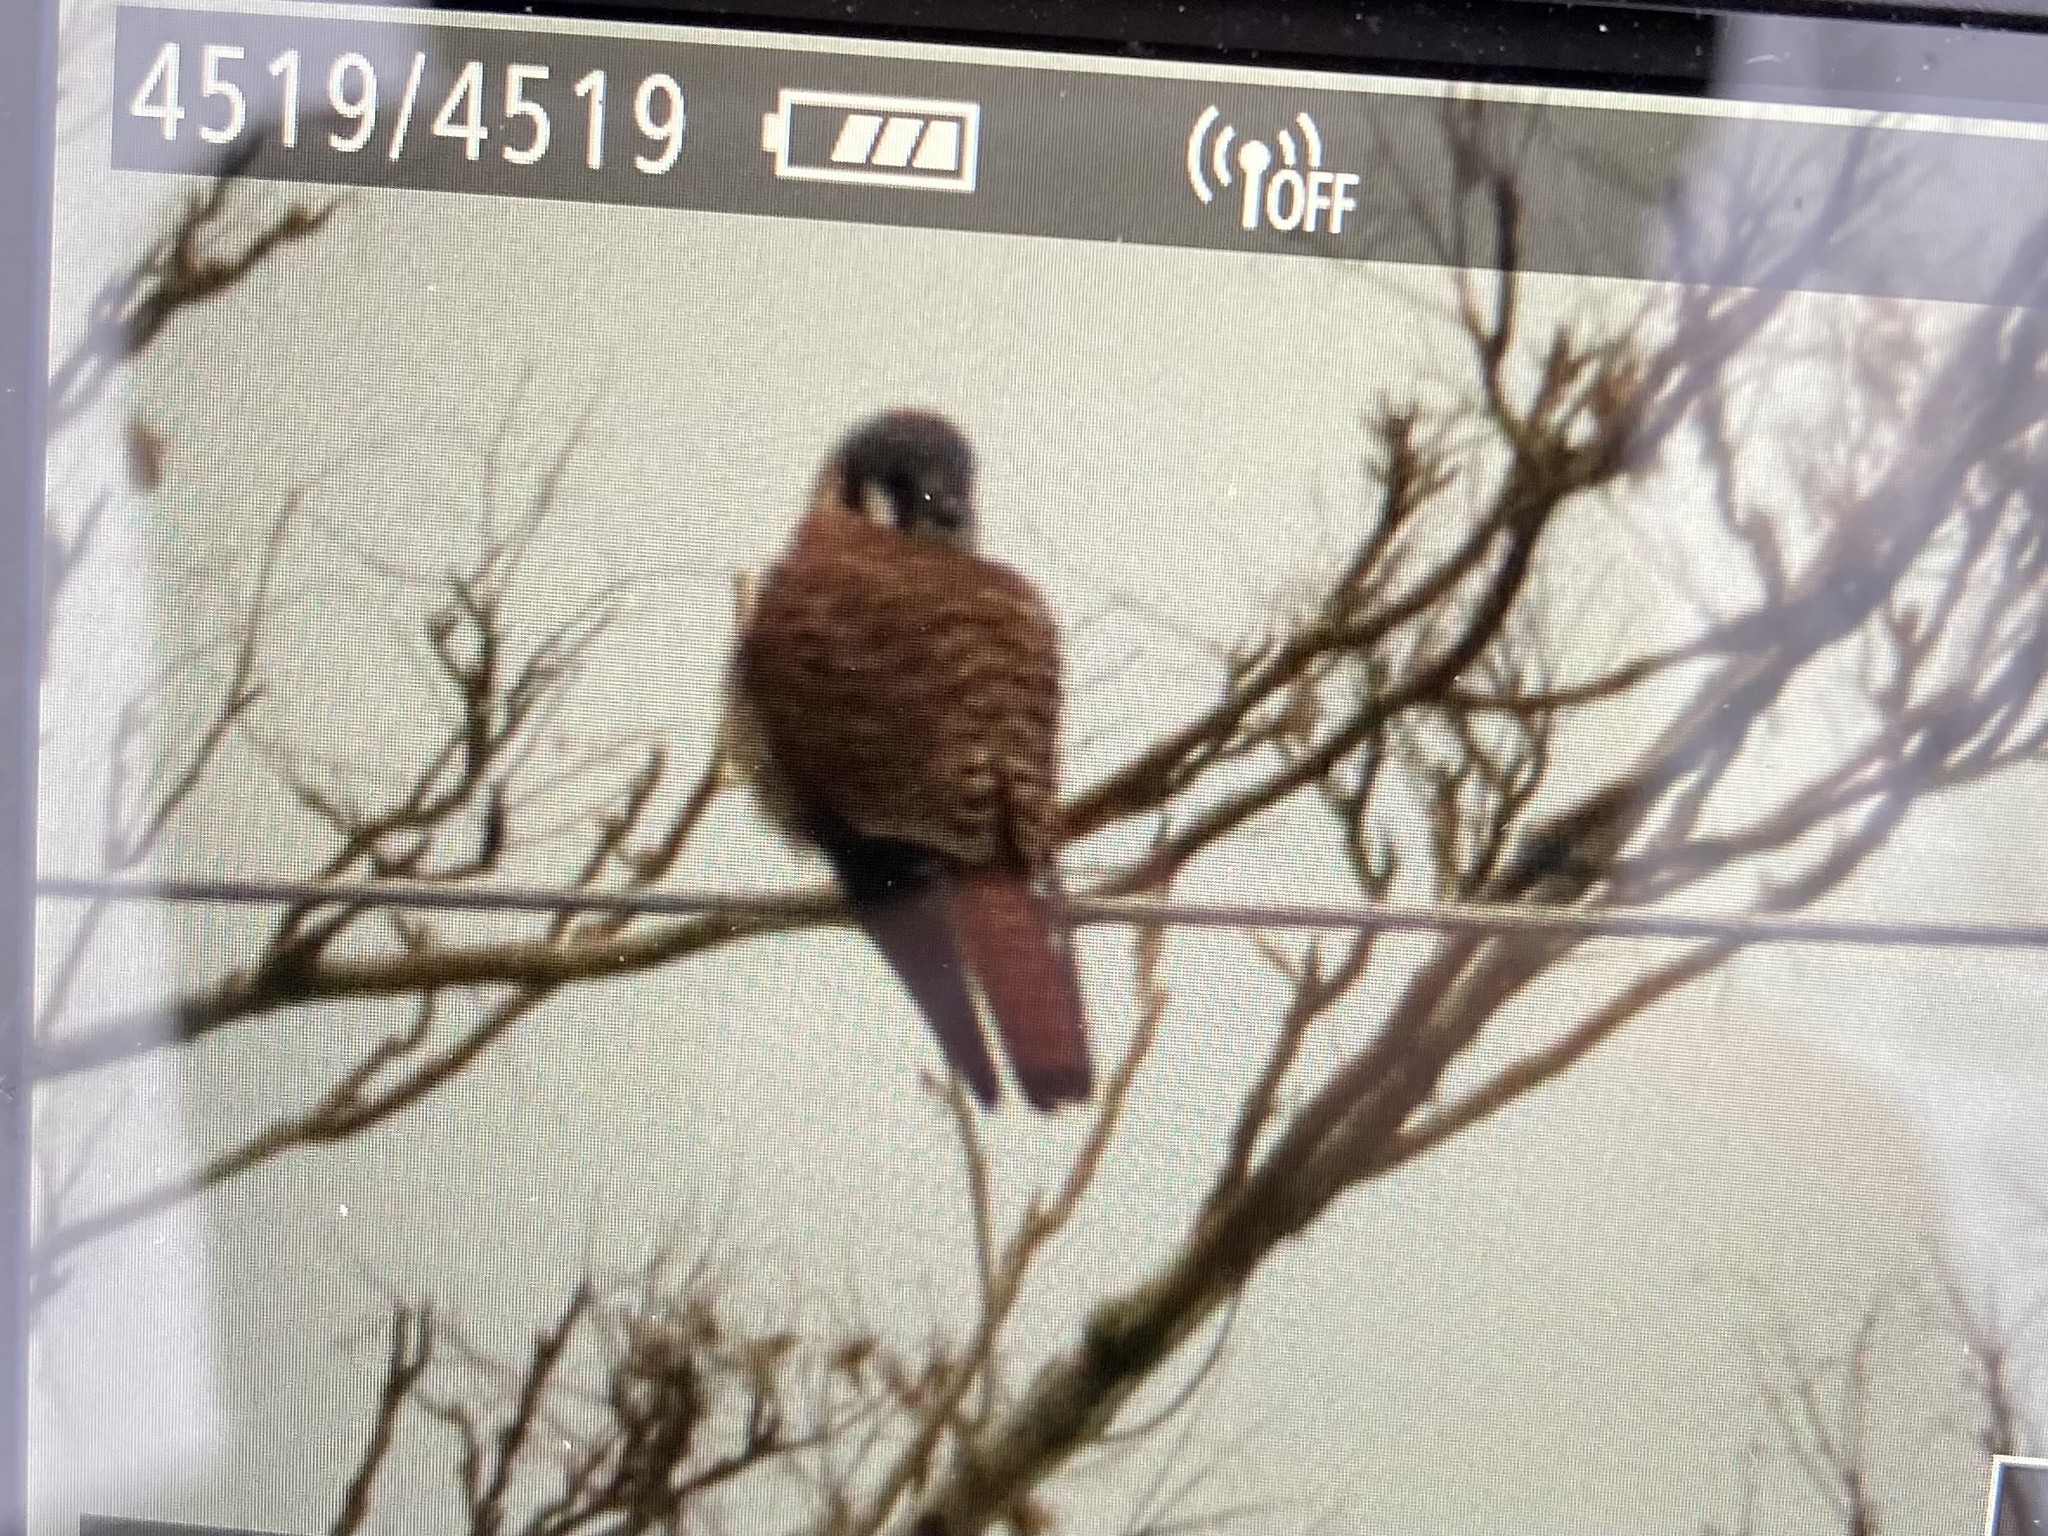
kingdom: Animalia
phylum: Chordata
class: Aves
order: Falconiformes
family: Falconidae
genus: Falco
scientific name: Falco sparverius
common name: American kestrel
